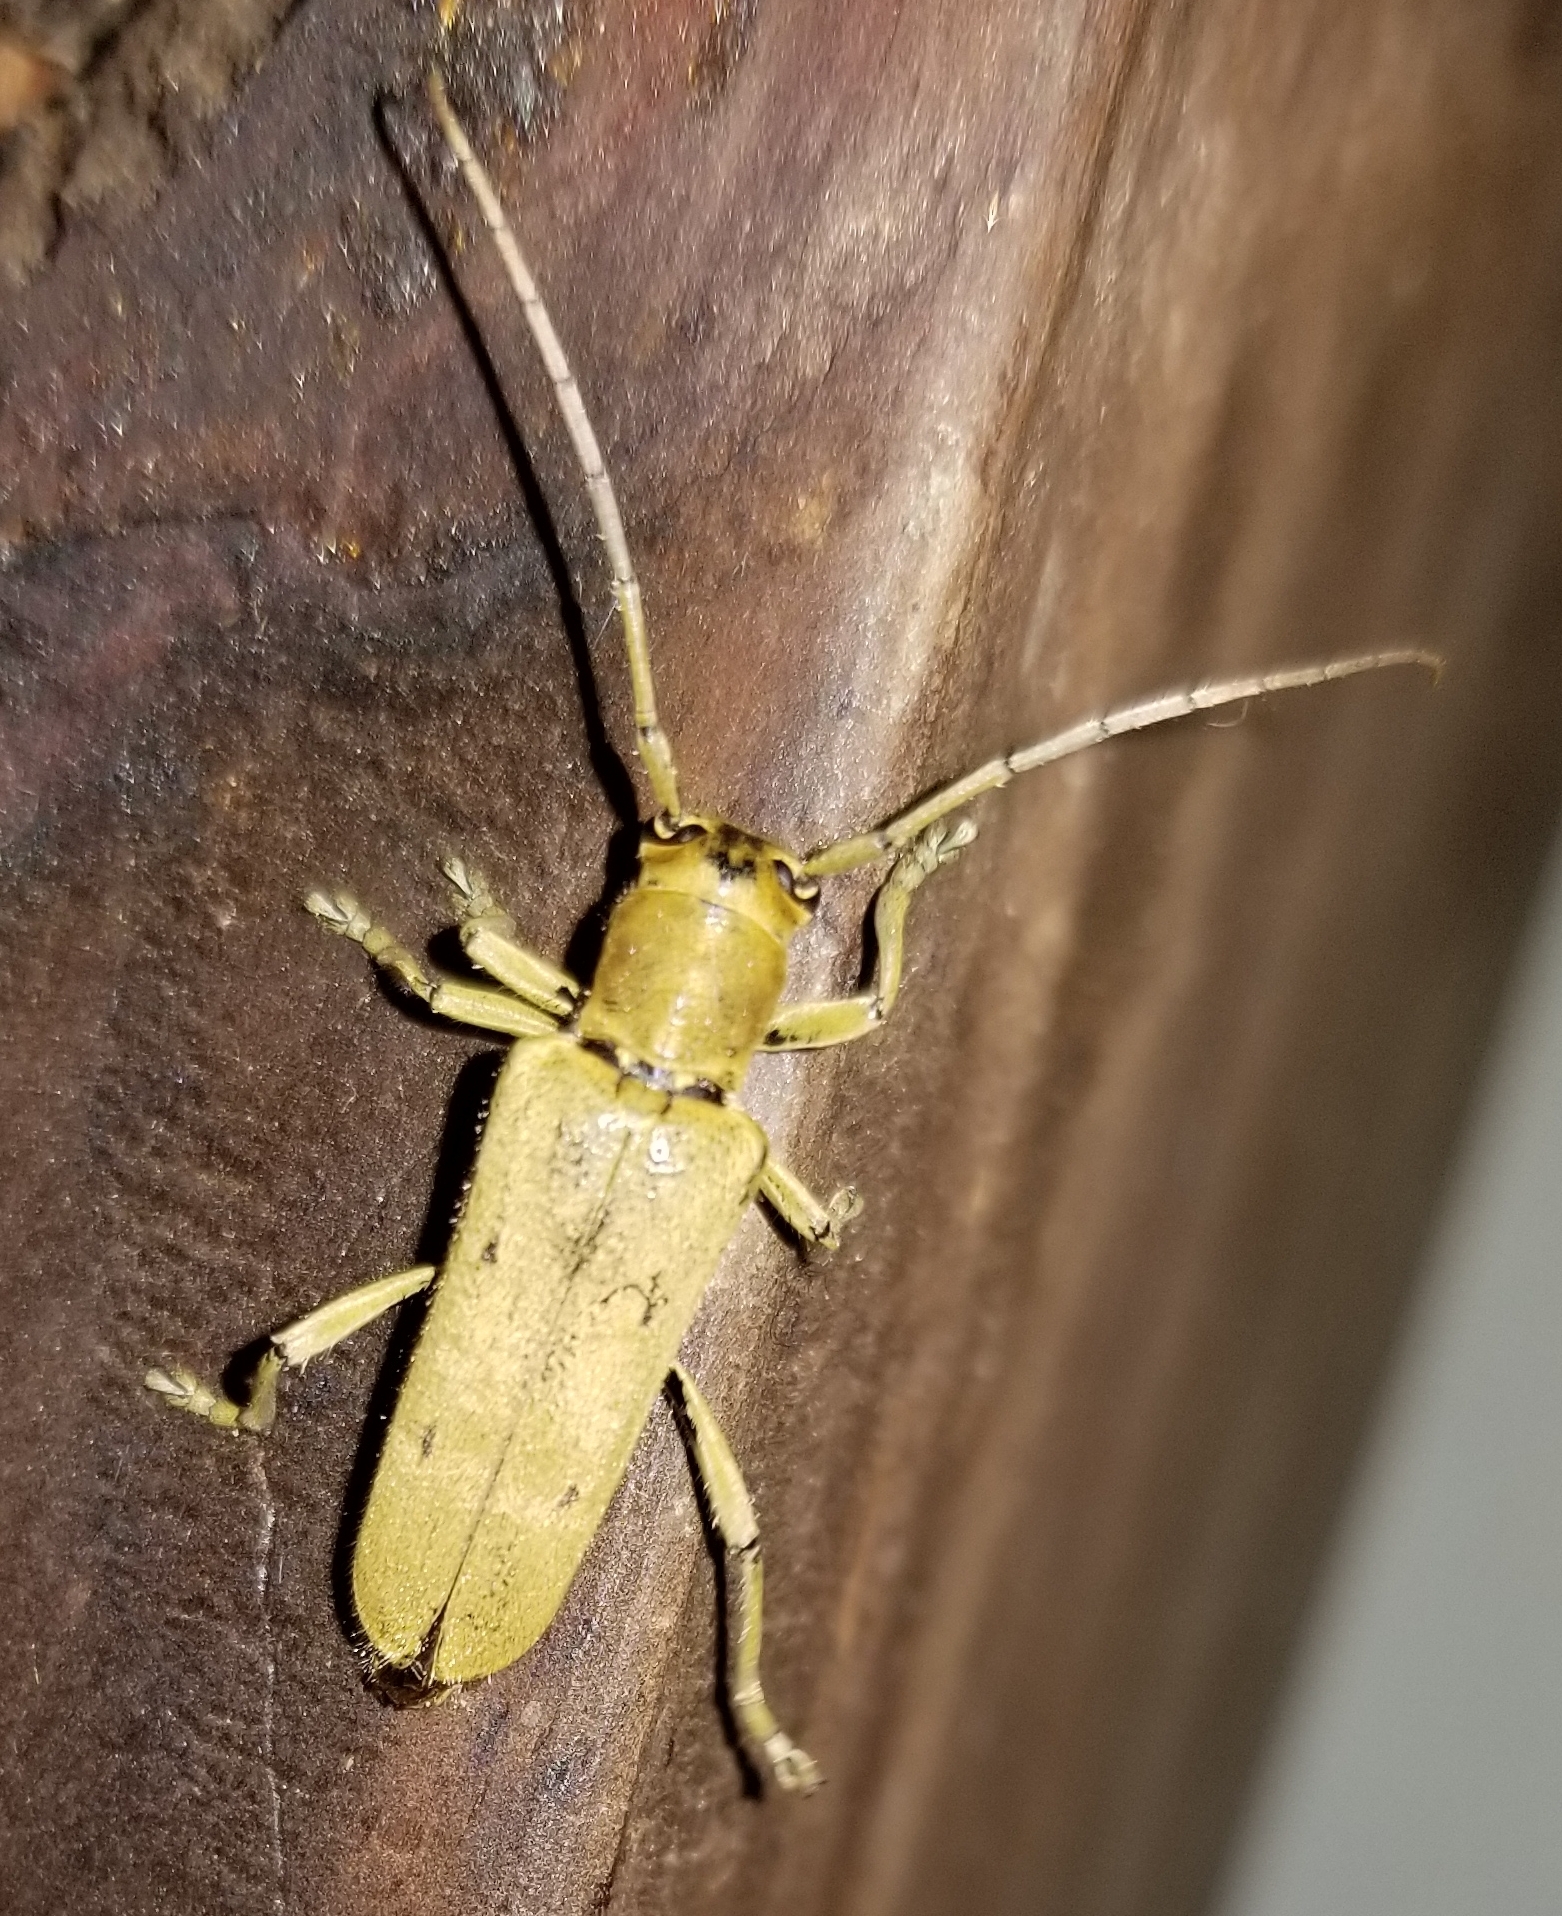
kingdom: Animalia
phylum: Arthropoda
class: Insecta
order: Coleoptera
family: Cerambycidae
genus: Saperda
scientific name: Saperda vestita
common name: Linden borer
